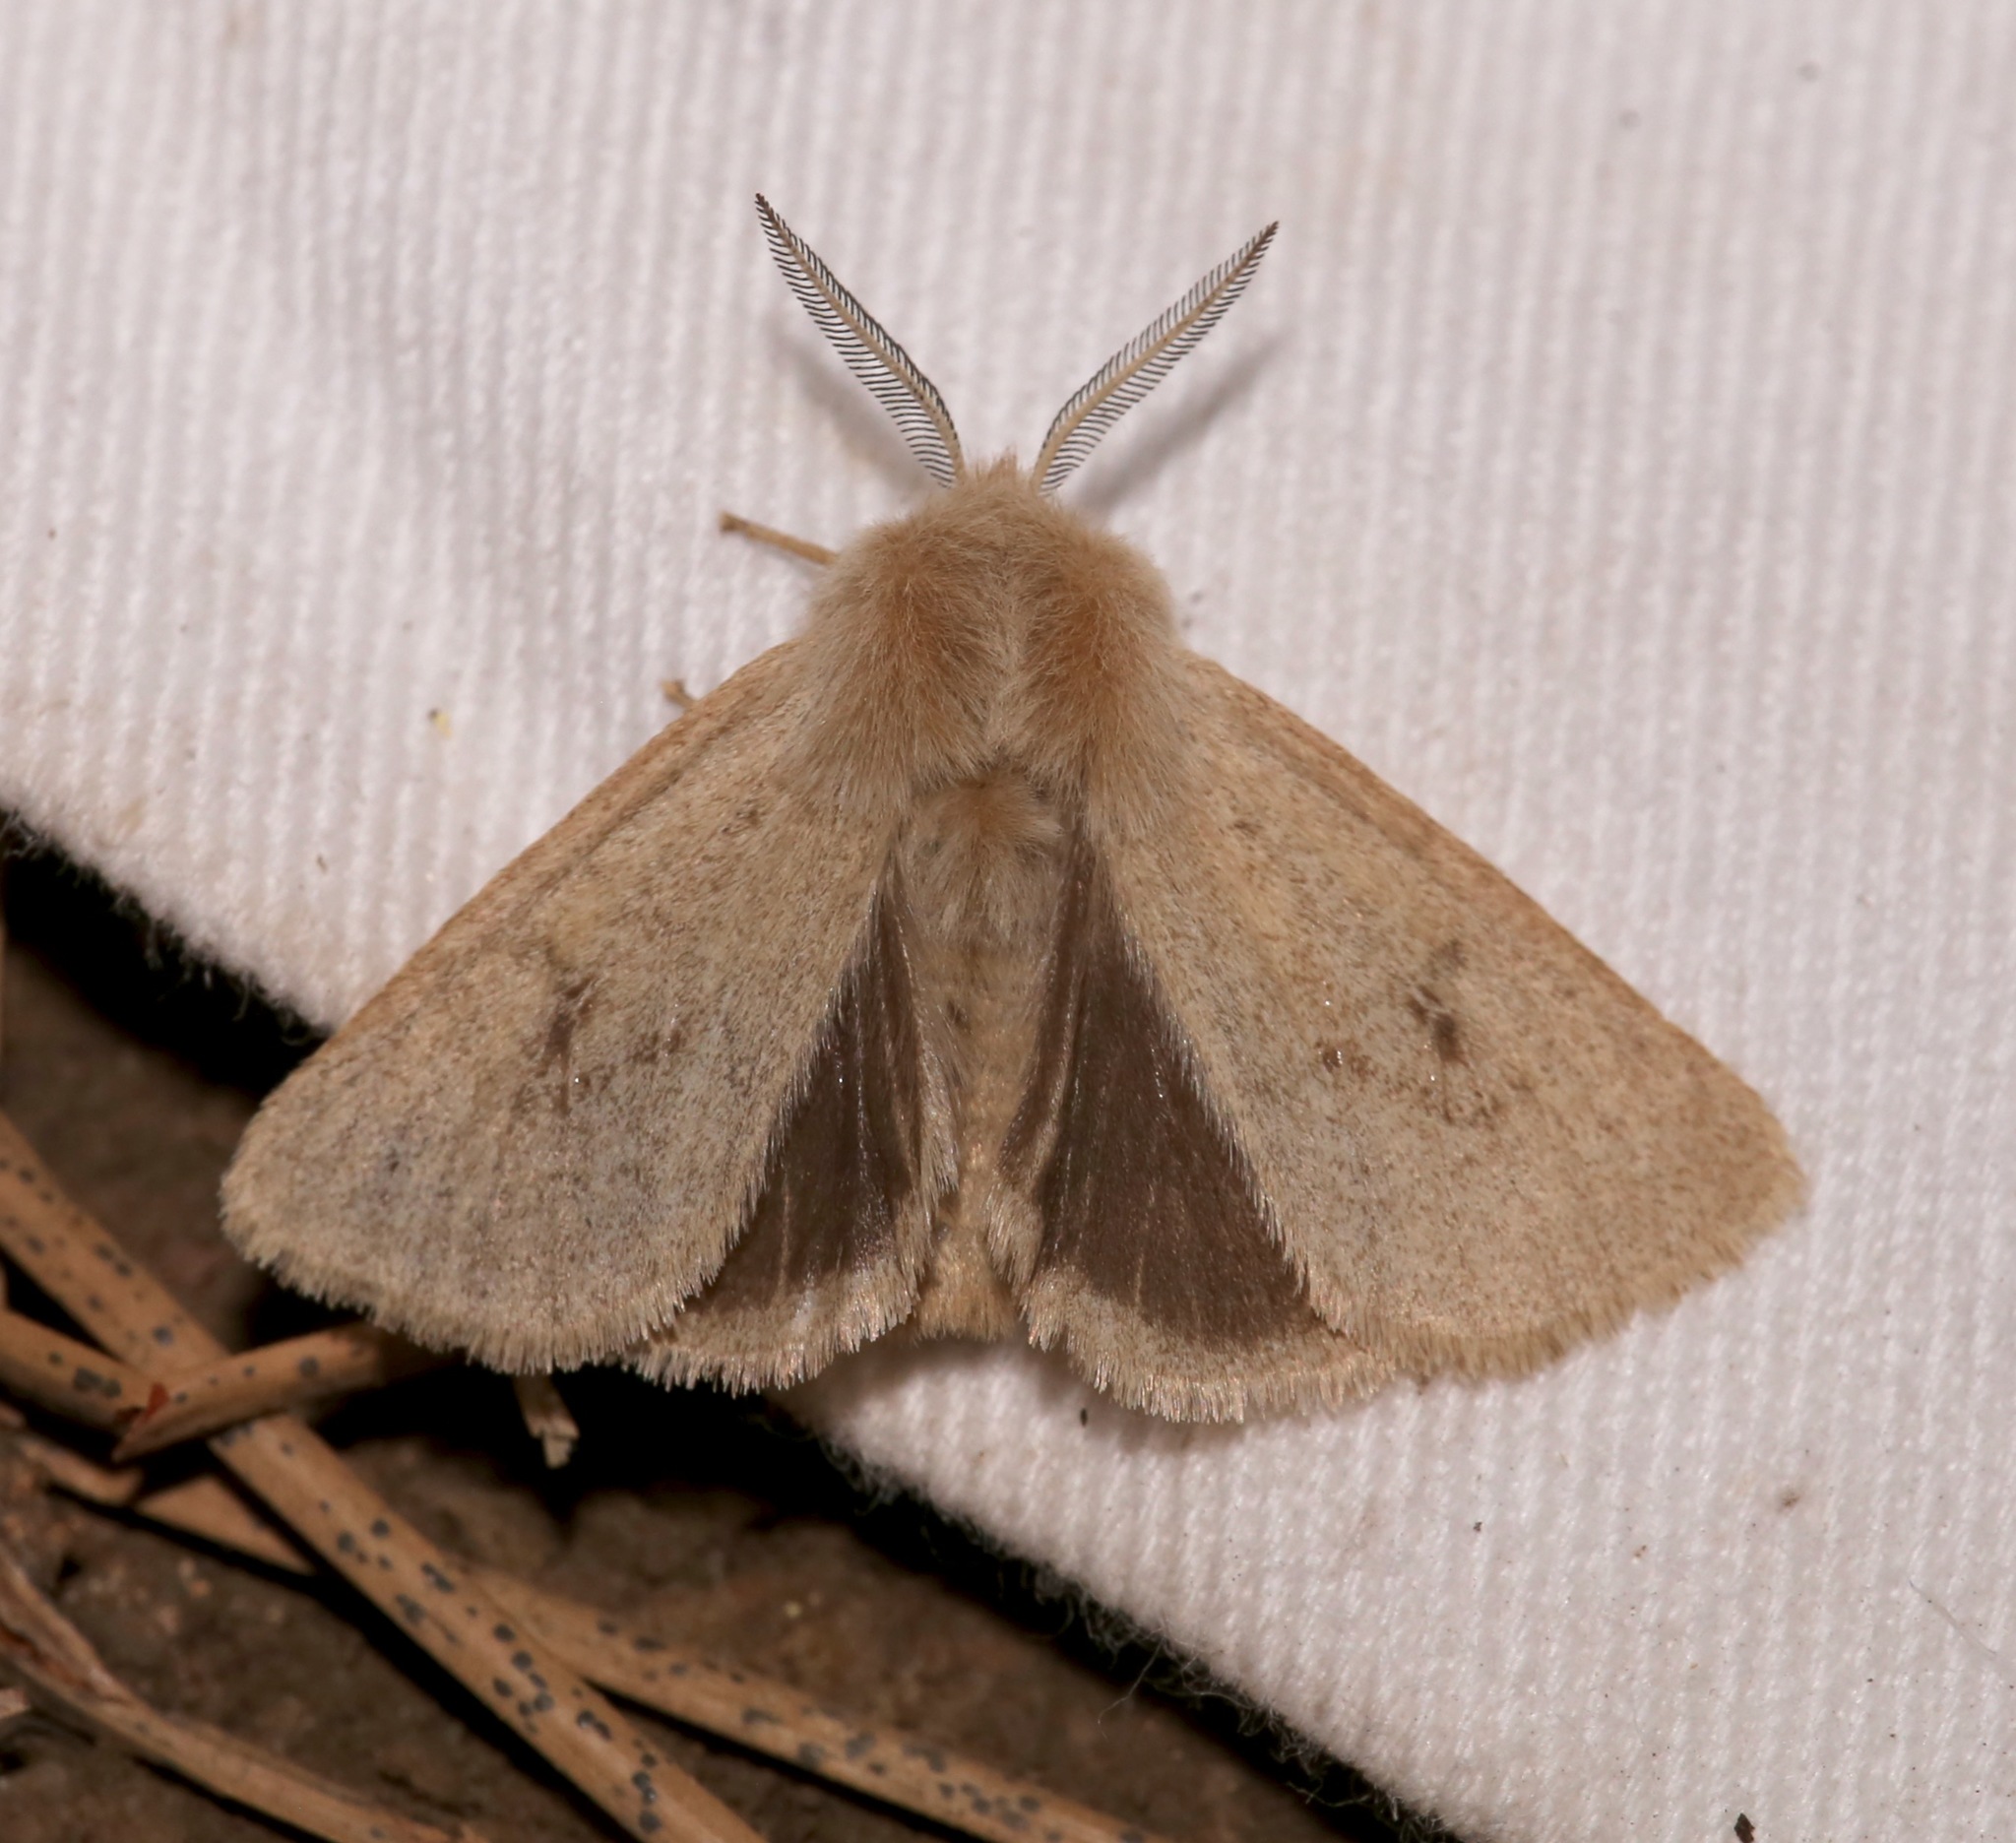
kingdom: Animalia
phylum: Arthropoda
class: Insecta
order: Lepidoptera
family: Erebidae
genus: Spilosoma
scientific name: Spilosoma vagans
